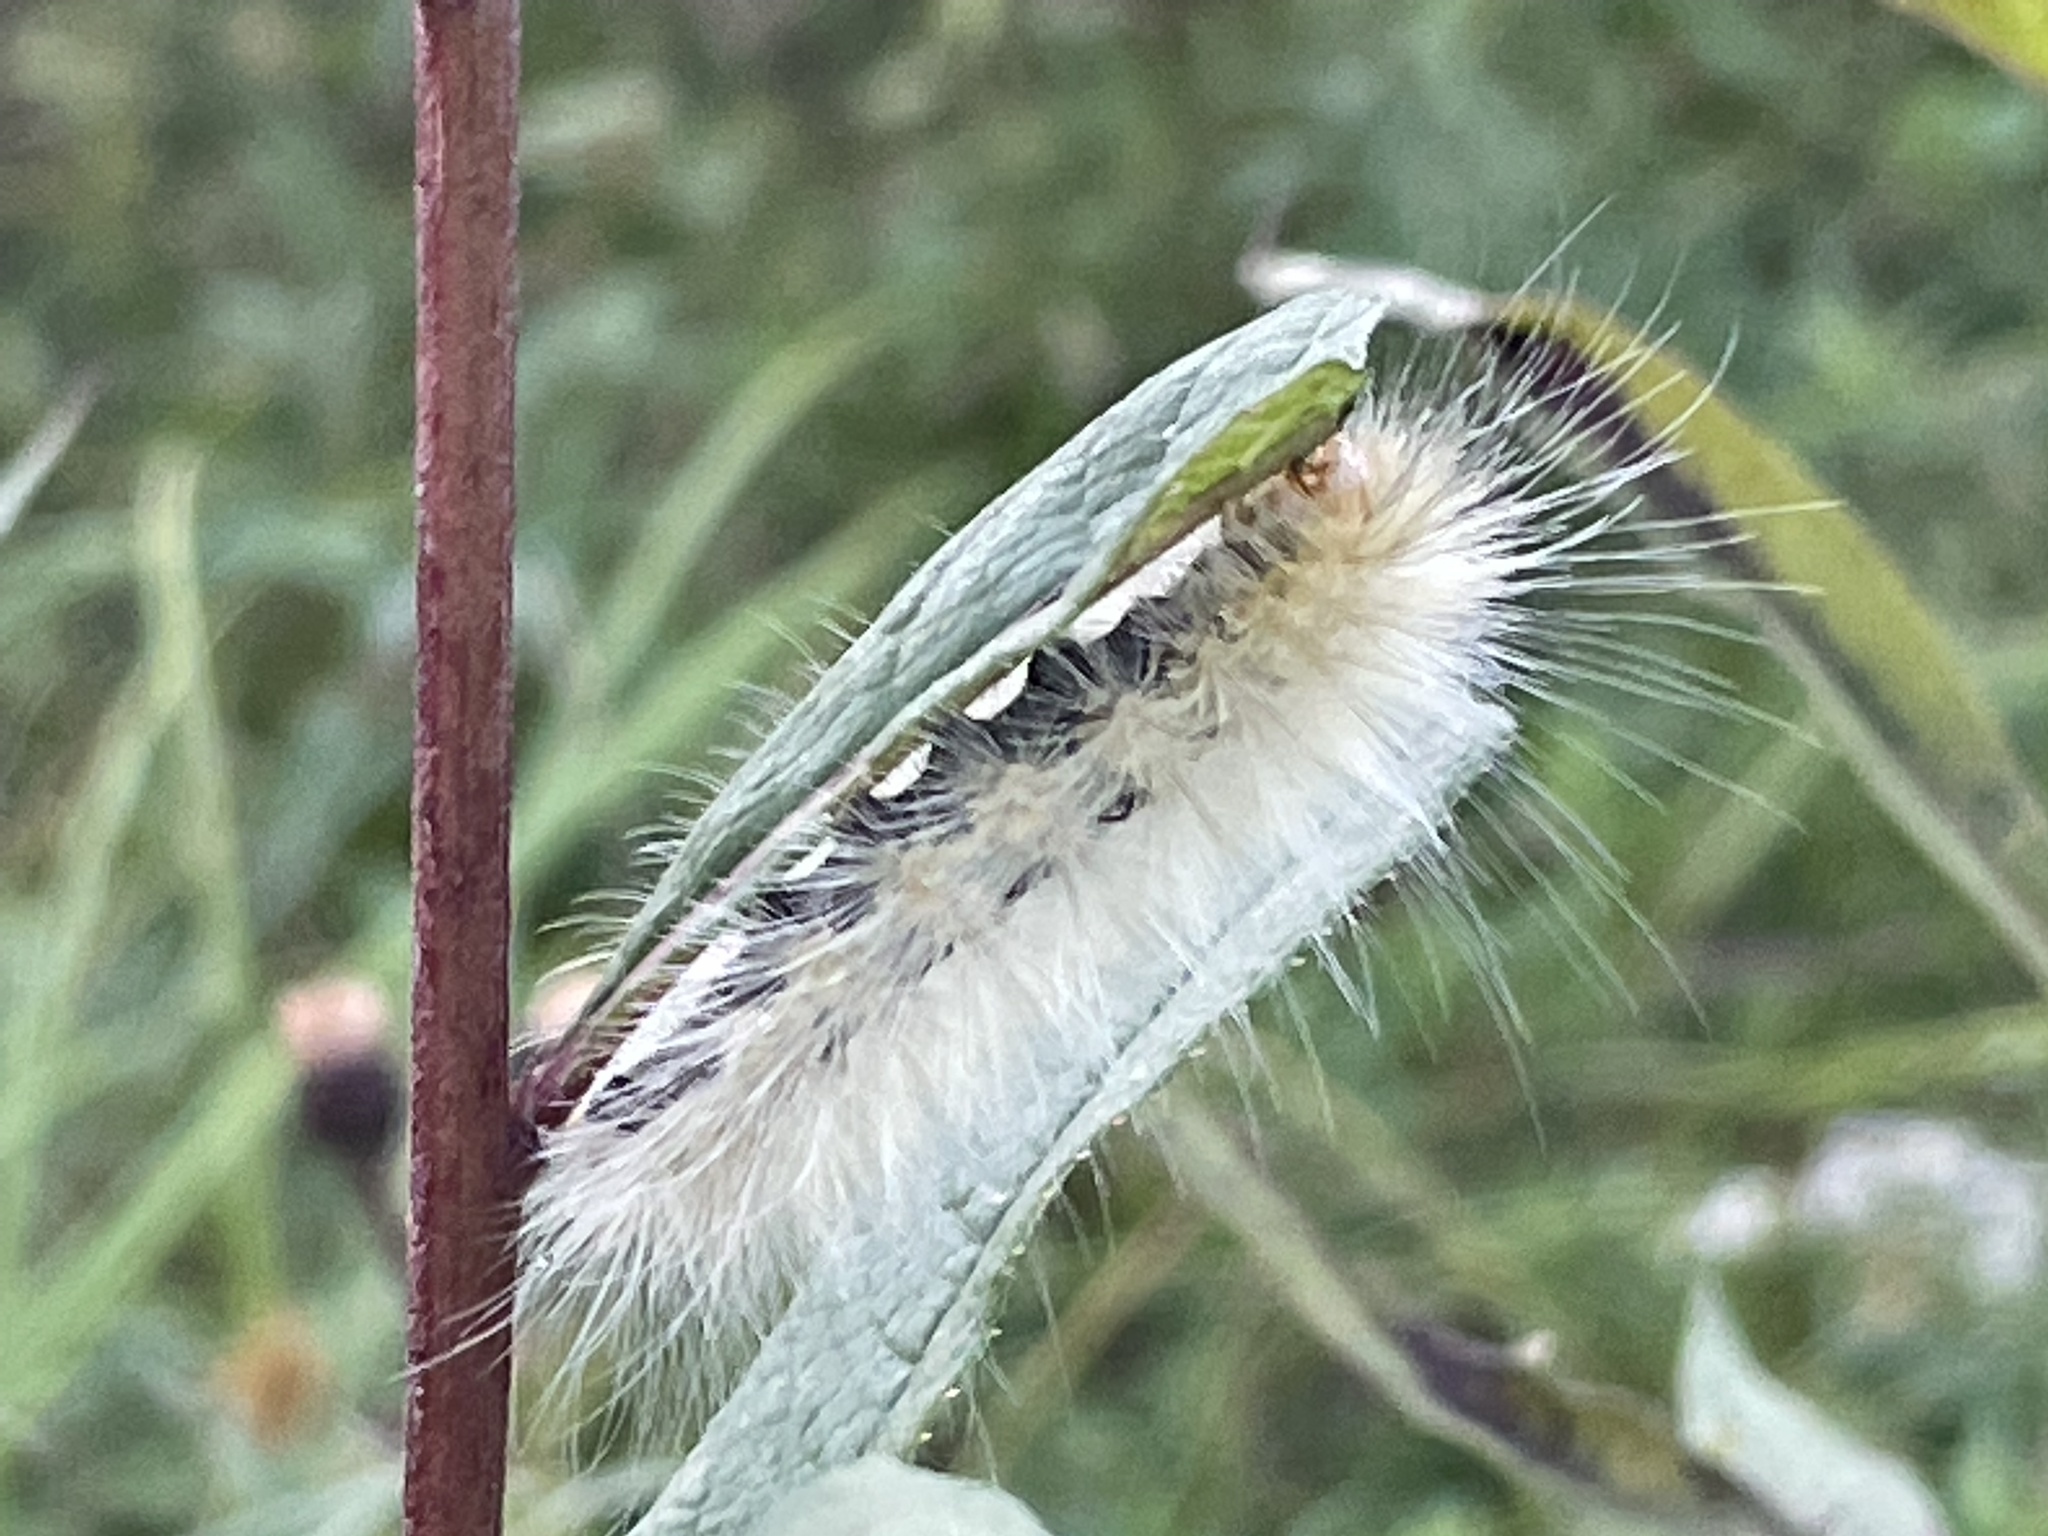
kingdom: Animalia
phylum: Arthropoda
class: Insecta
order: Lepidoptera
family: Erebidae
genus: Spilosoma
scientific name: Spilosoma virginica
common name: Virginia tiger moth
